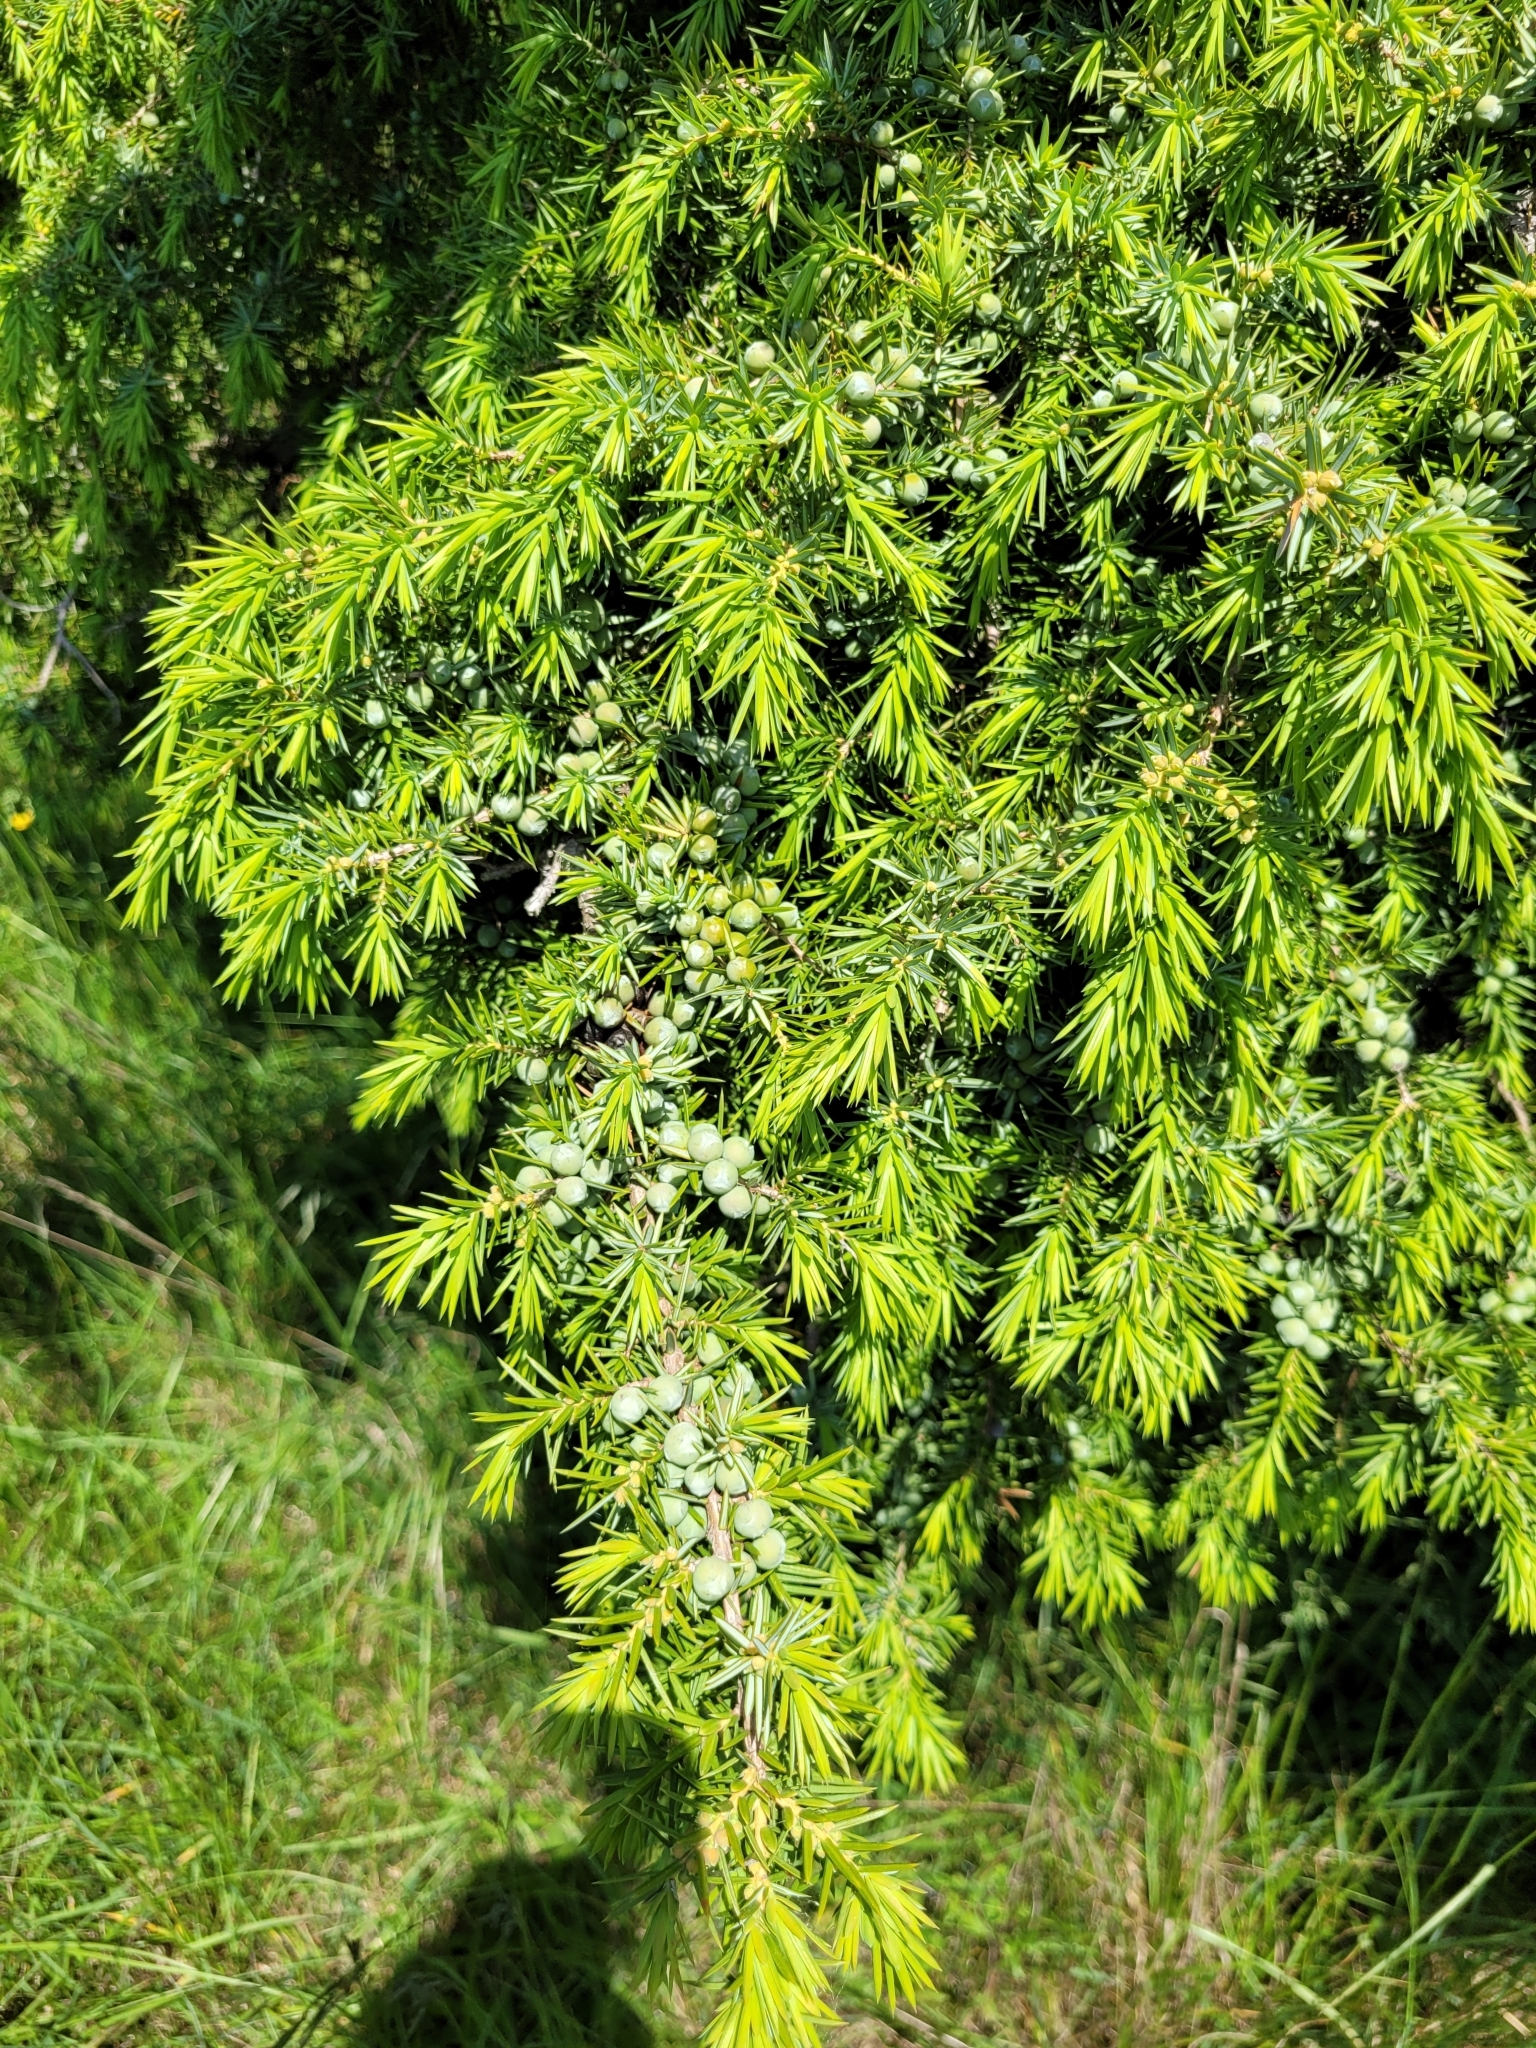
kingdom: Plantae
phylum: Tracheophyta
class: Pinopsida
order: Pinales
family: Cupressaceae
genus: Juniperus
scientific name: Juniperus communis
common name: Common juniper
